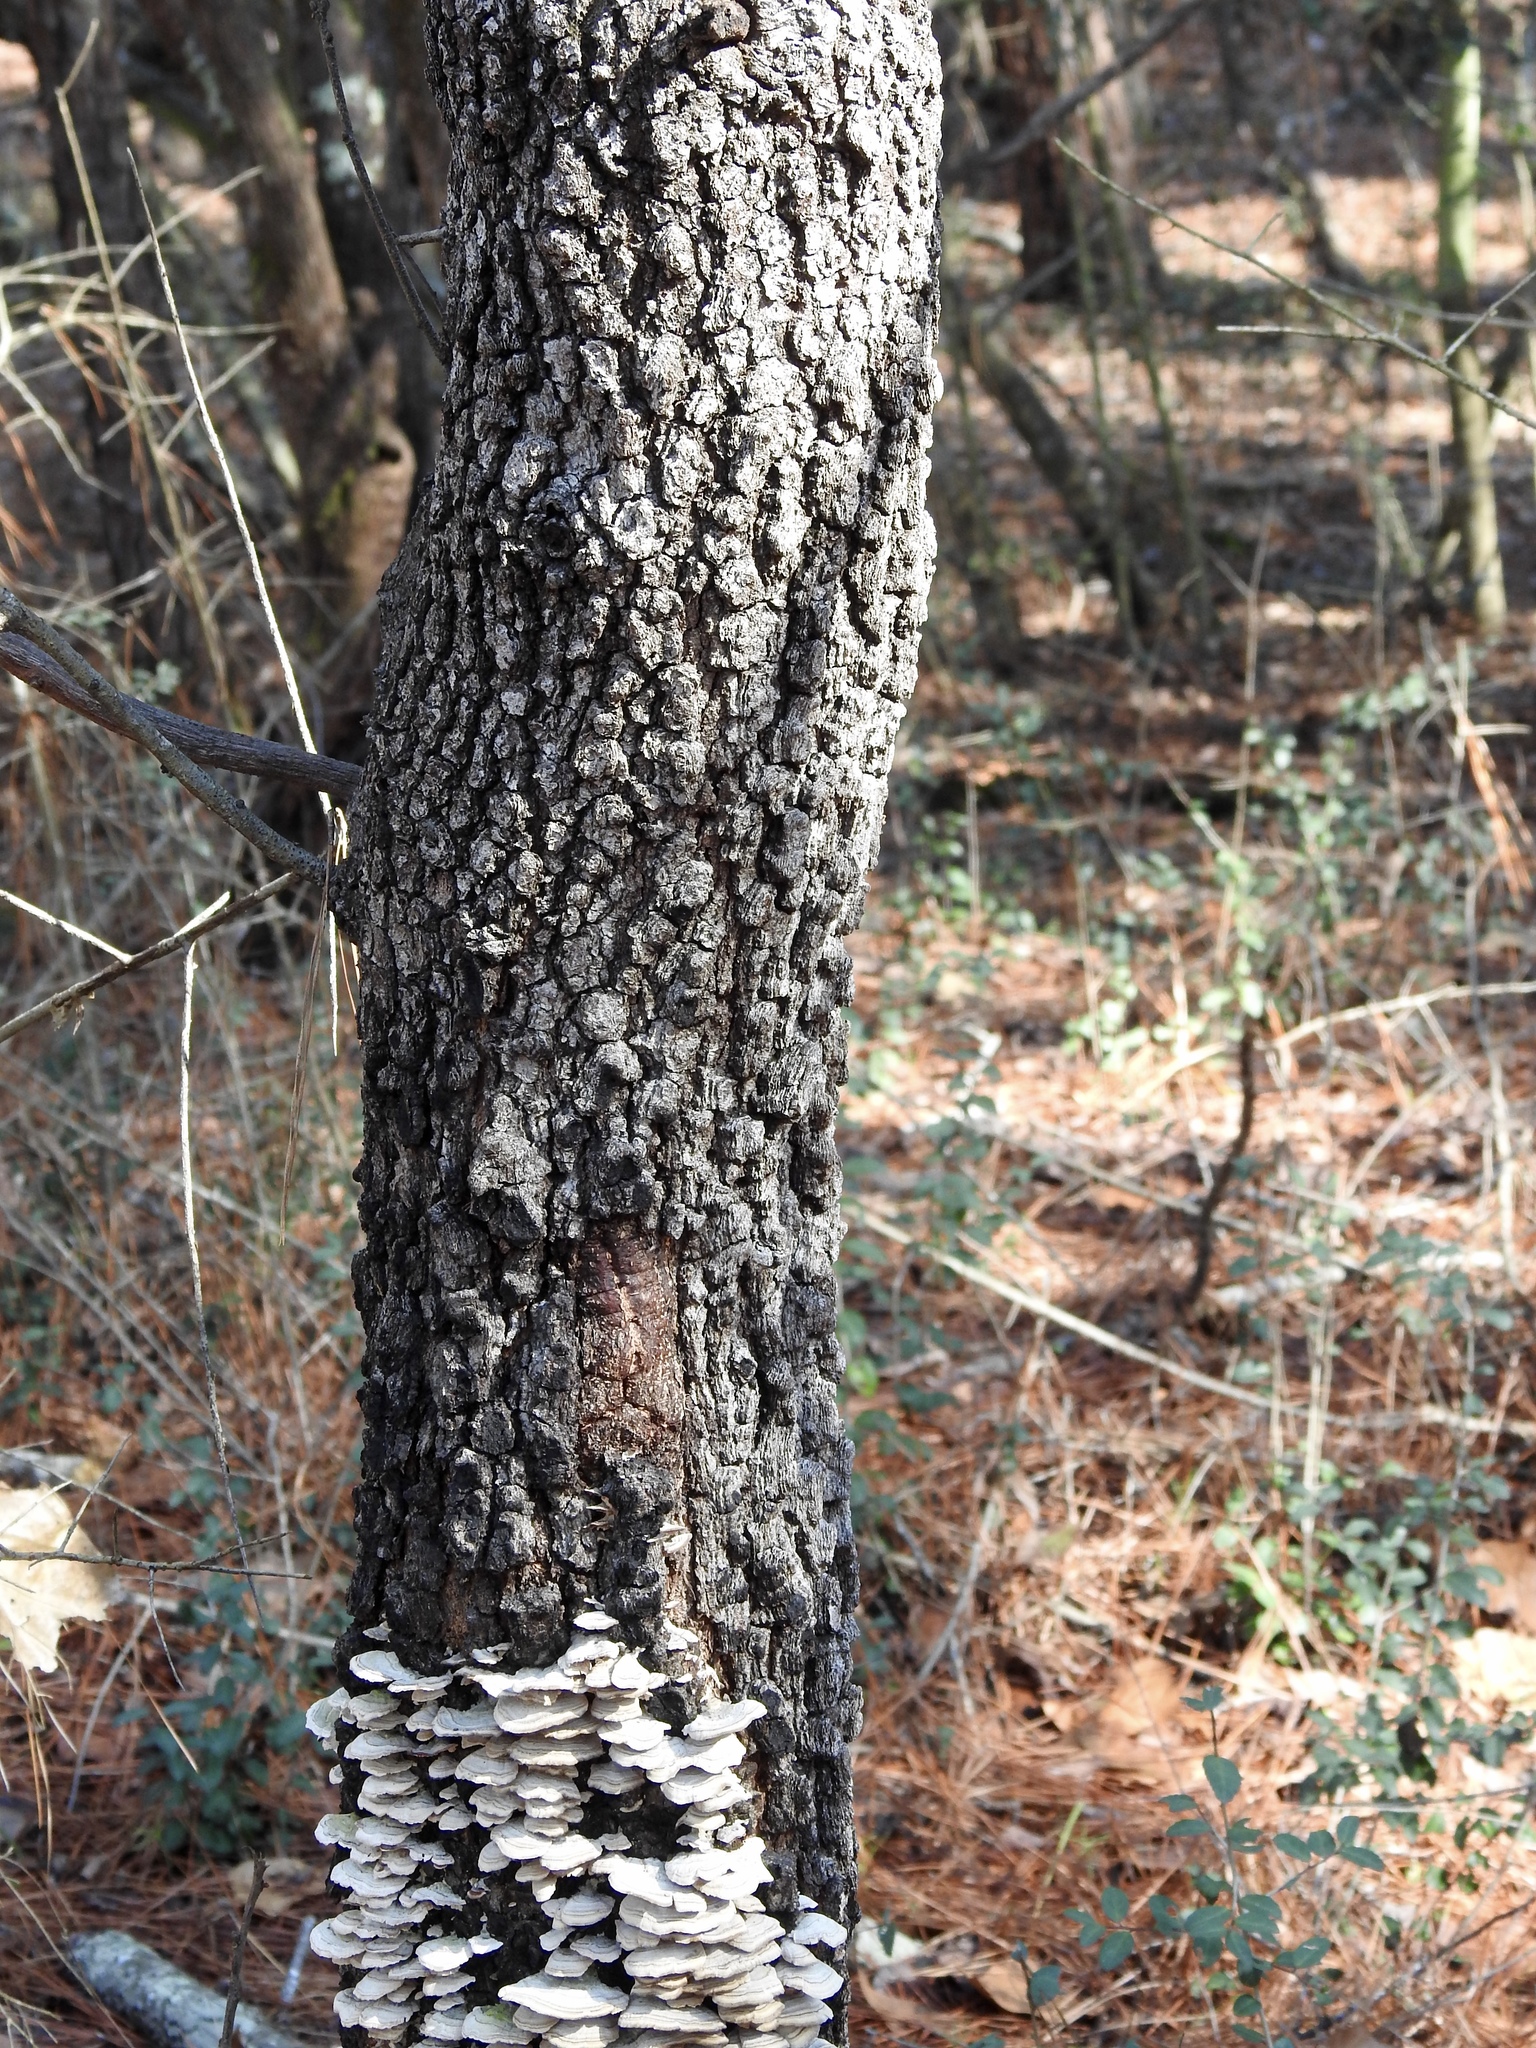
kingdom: Plantae
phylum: Tracheophyta
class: Magnoliopsida
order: Fagales
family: Fagaceae
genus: Quercus
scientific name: Quercus marilandica
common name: Blackjack oak
